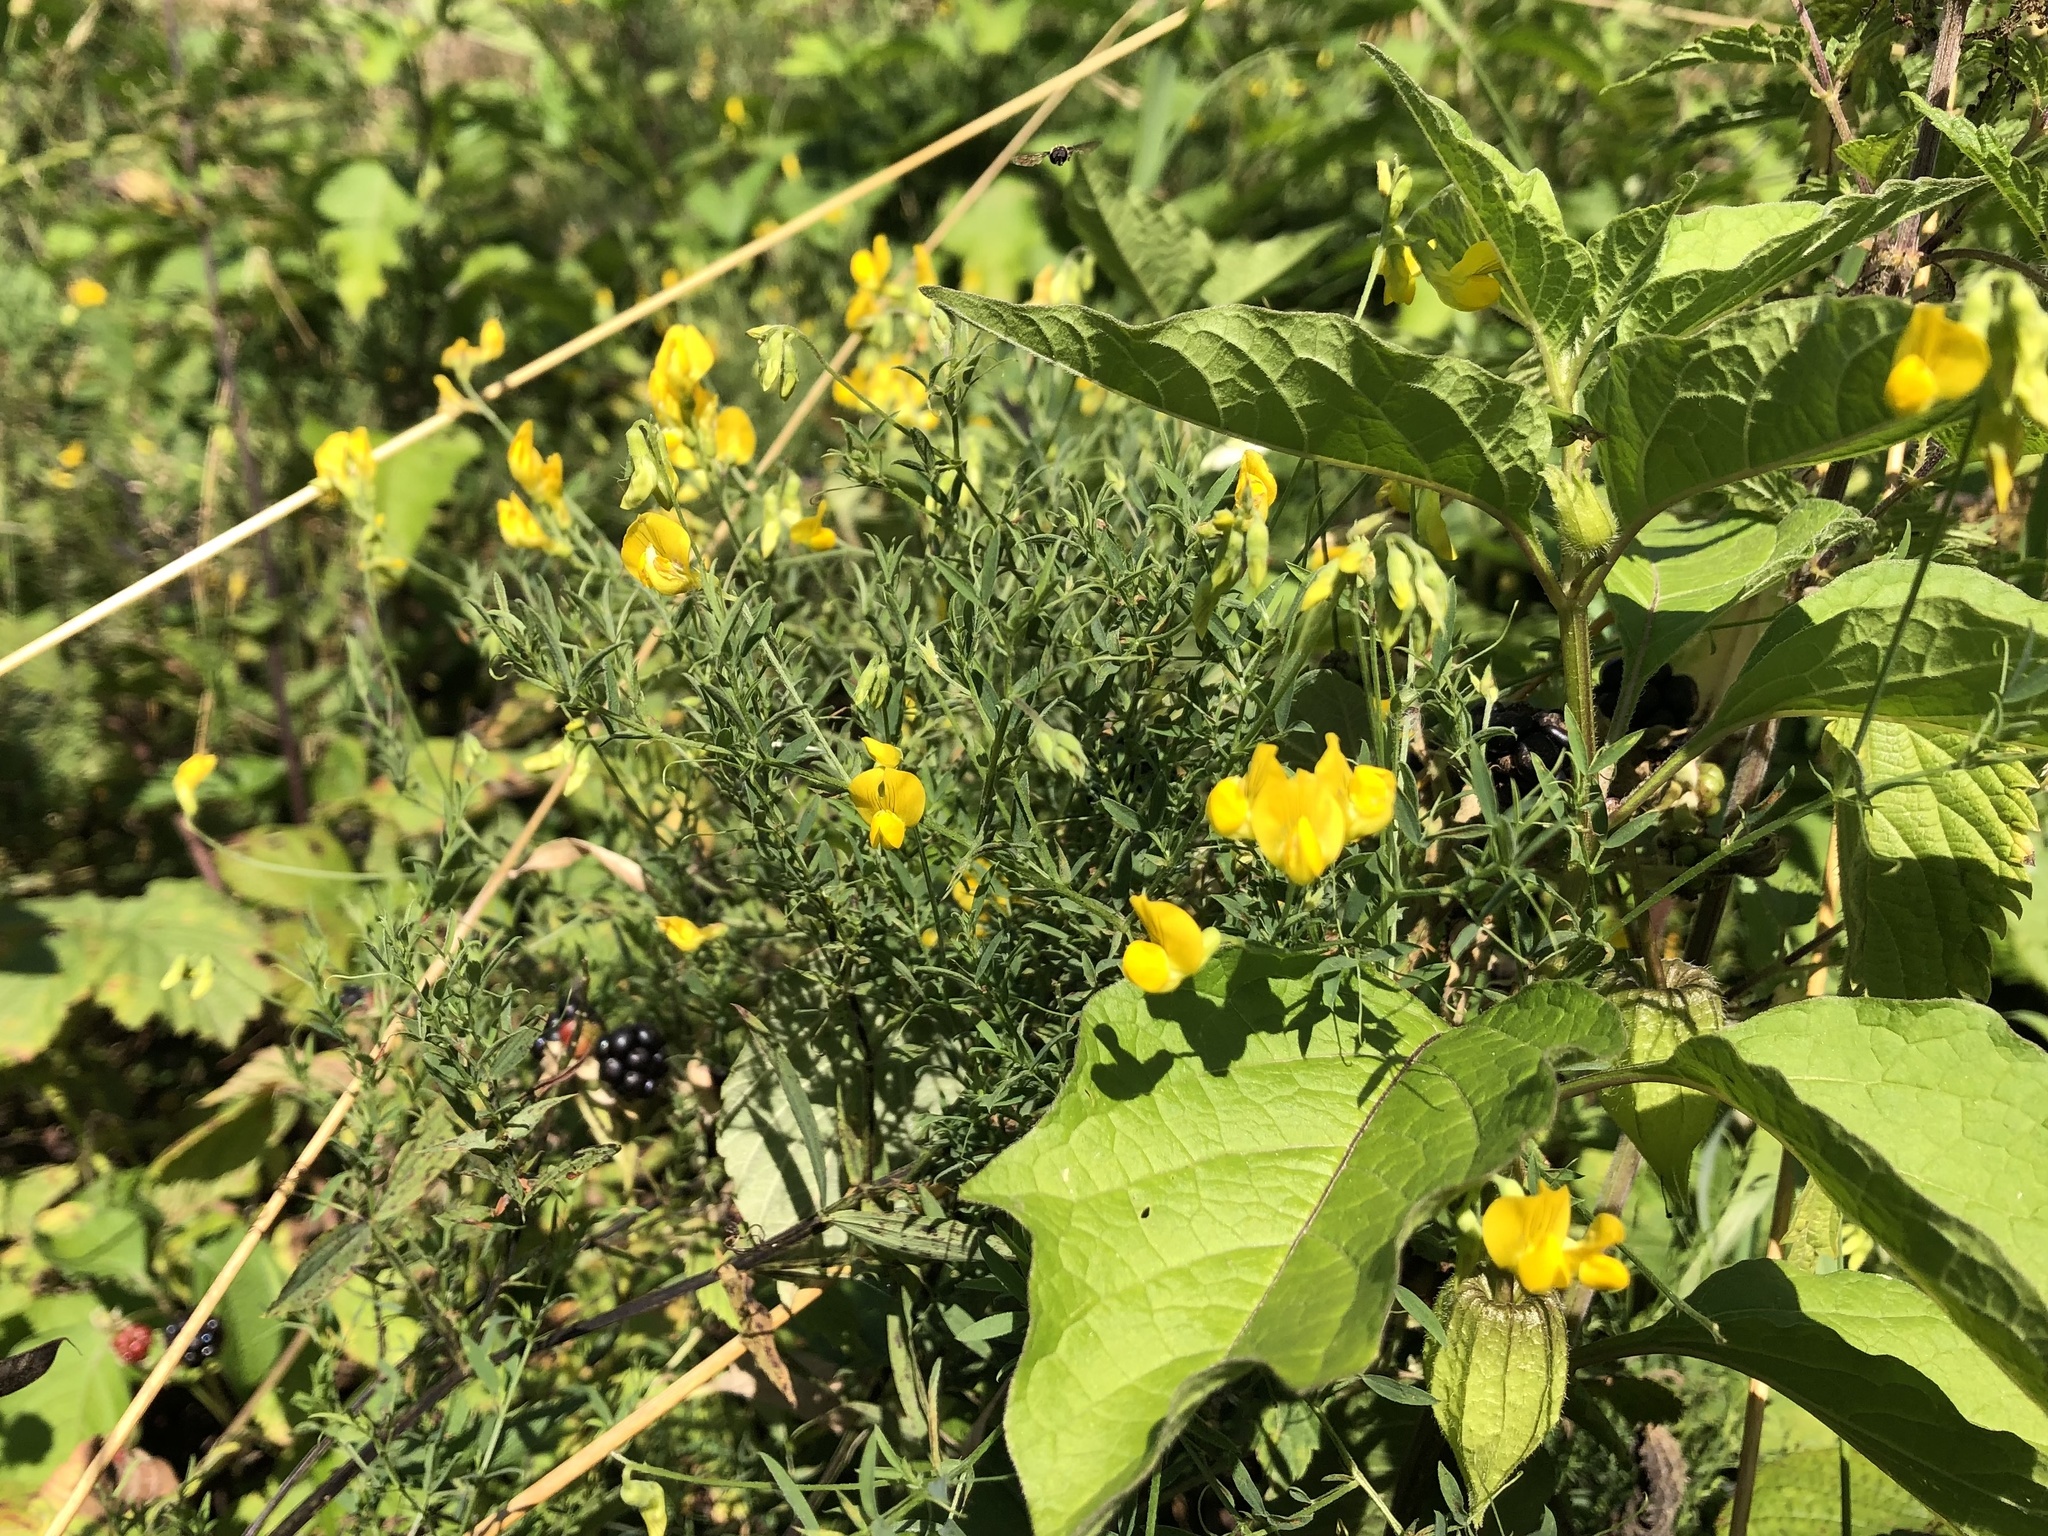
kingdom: Plantae
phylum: Tracheophyta
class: Magnoliopsida
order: Fabales
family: Fabaceae
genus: Lathyrus
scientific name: Lathyrus pratensis
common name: Meadow vetchling
